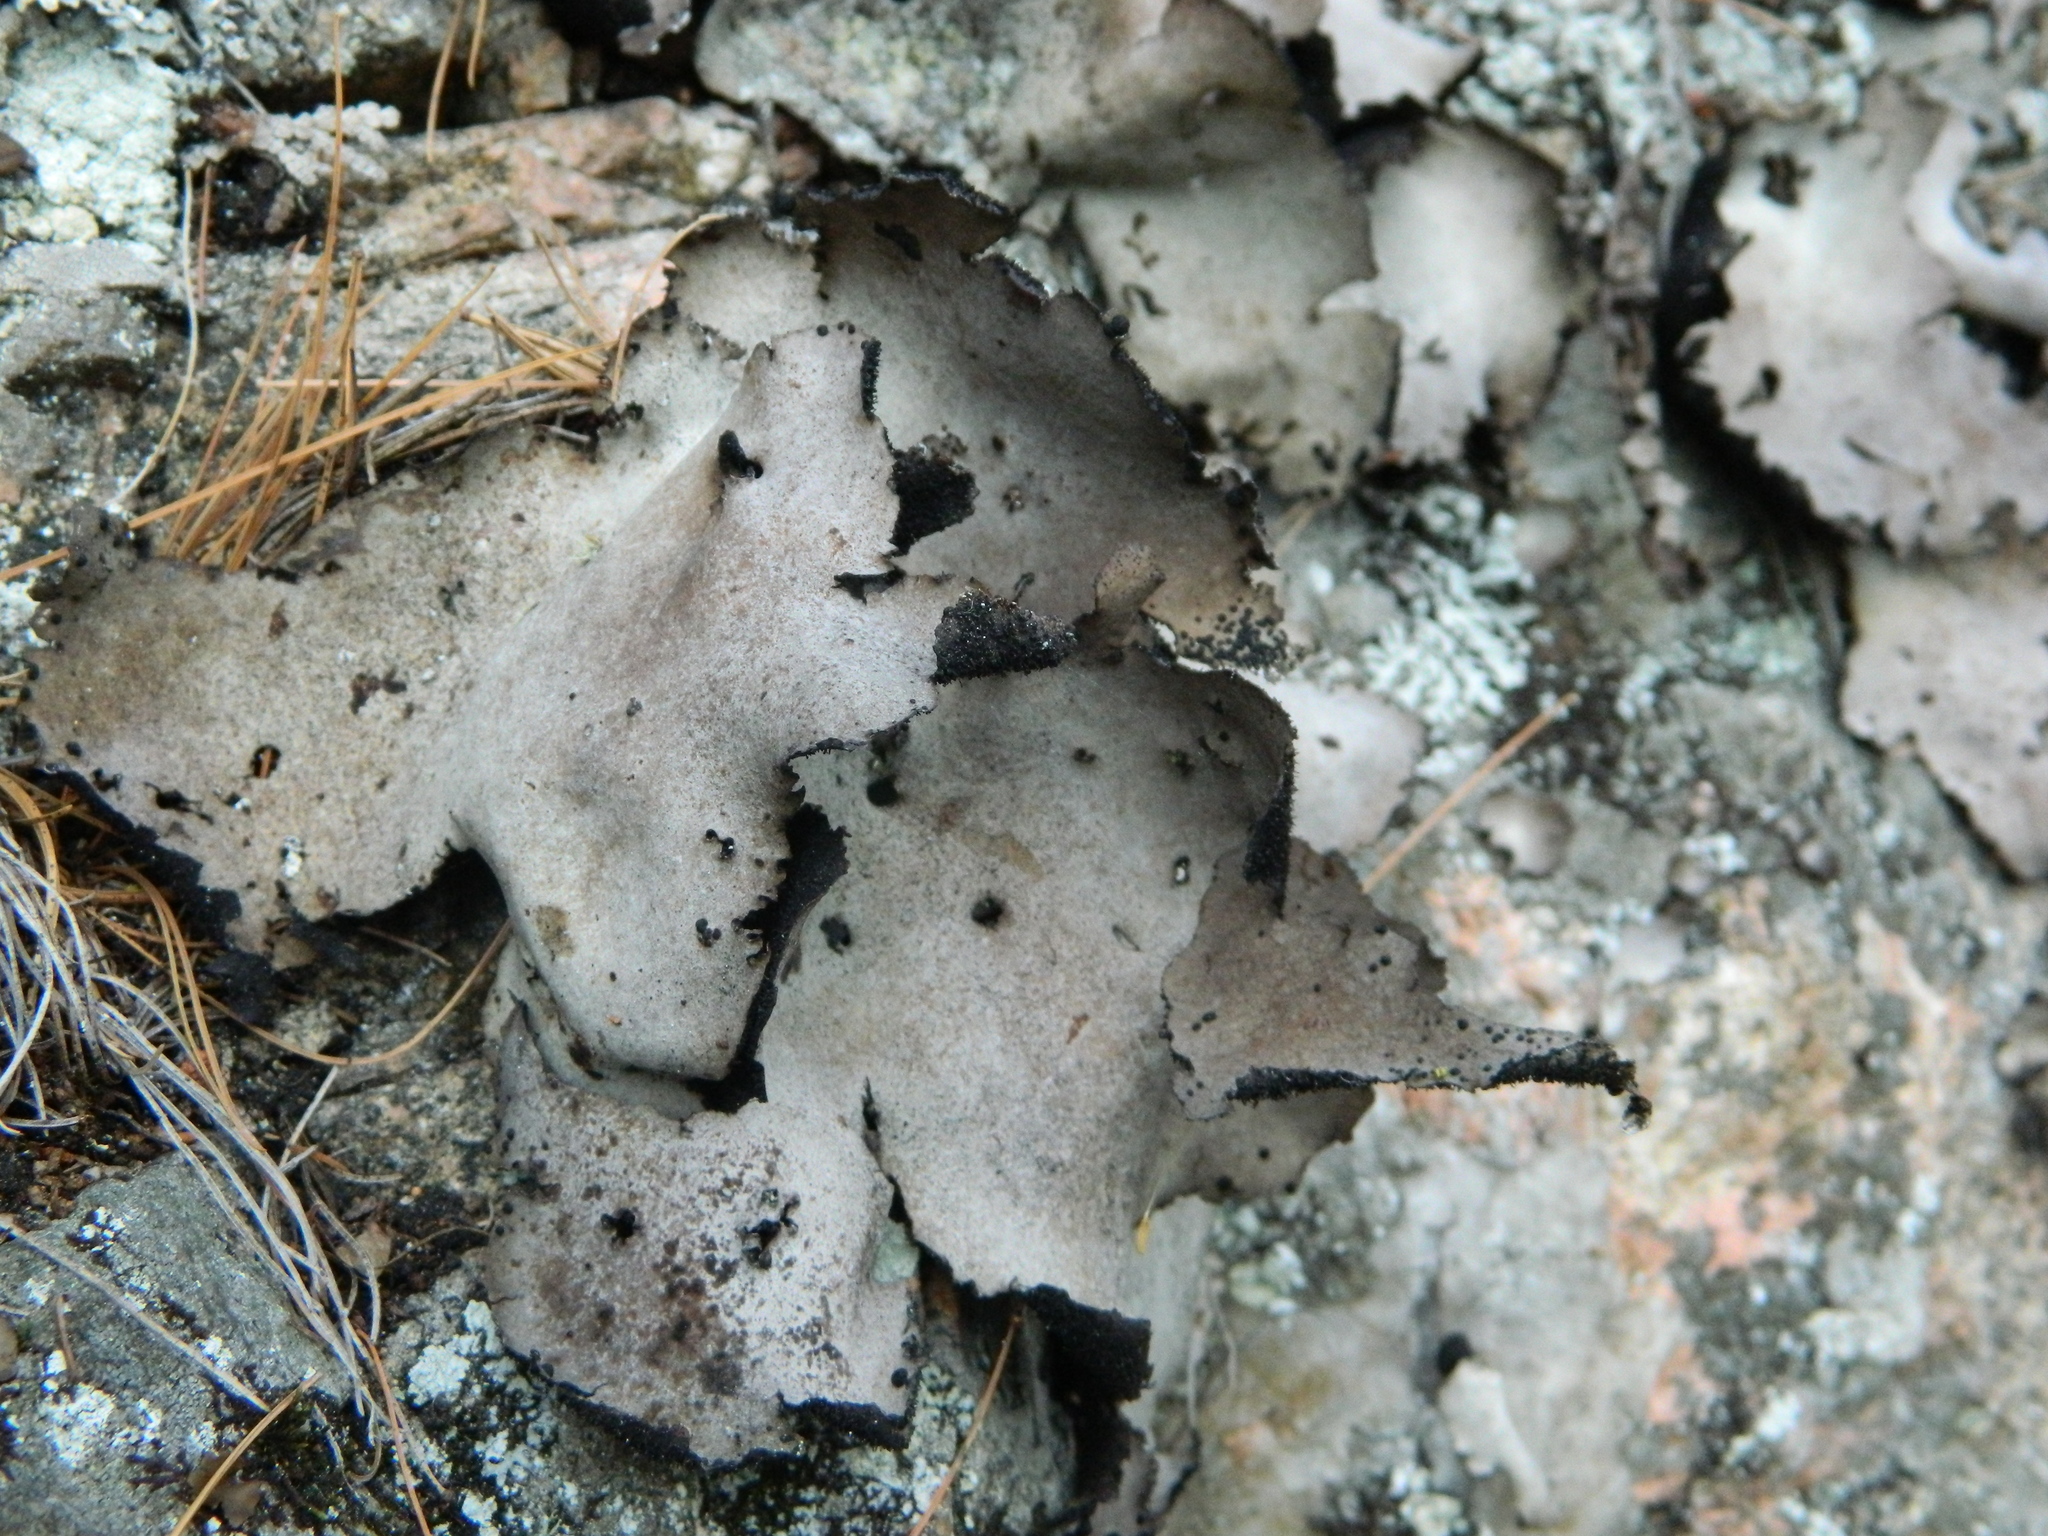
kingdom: Fungi
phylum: Ascomycota
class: Lecanoromycetes
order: Umbilicariales
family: Umbilicariaceae
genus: Umbilicaria
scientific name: Umbilicaria americana
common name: Frosted rock tripe
